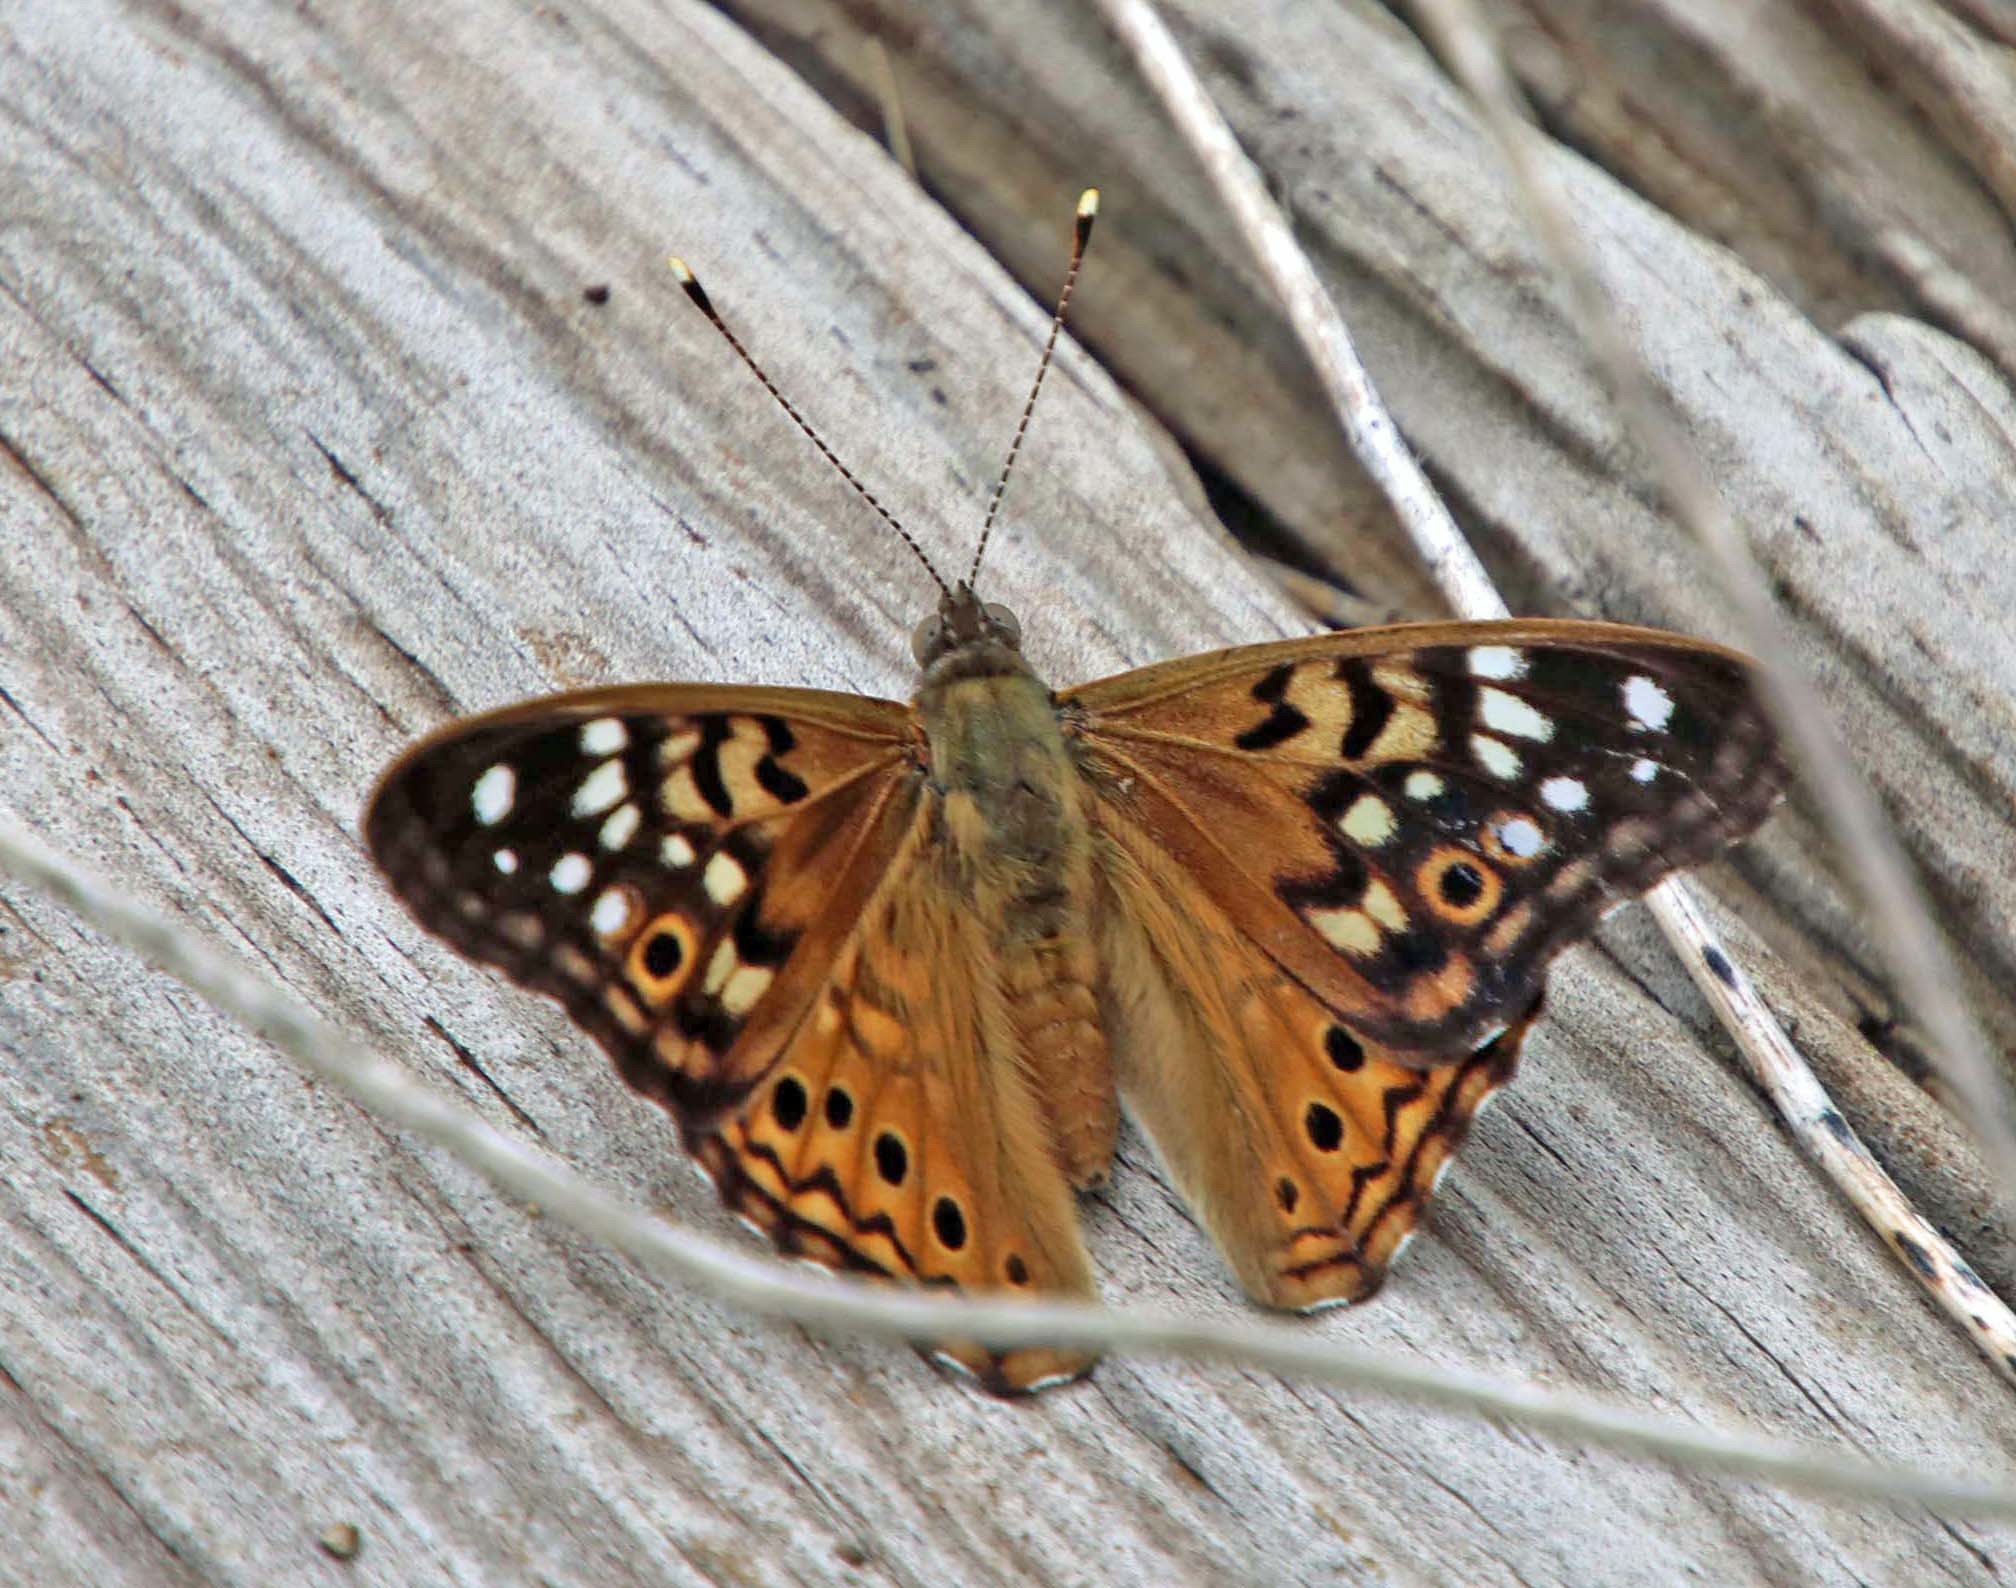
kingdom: Animalia
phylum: Arthropoda
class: Insecta
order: Lepidoptera
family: Nymphalidae
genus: Asterocampa
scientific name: Asterocampa celtis
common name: Hackberry emperor
